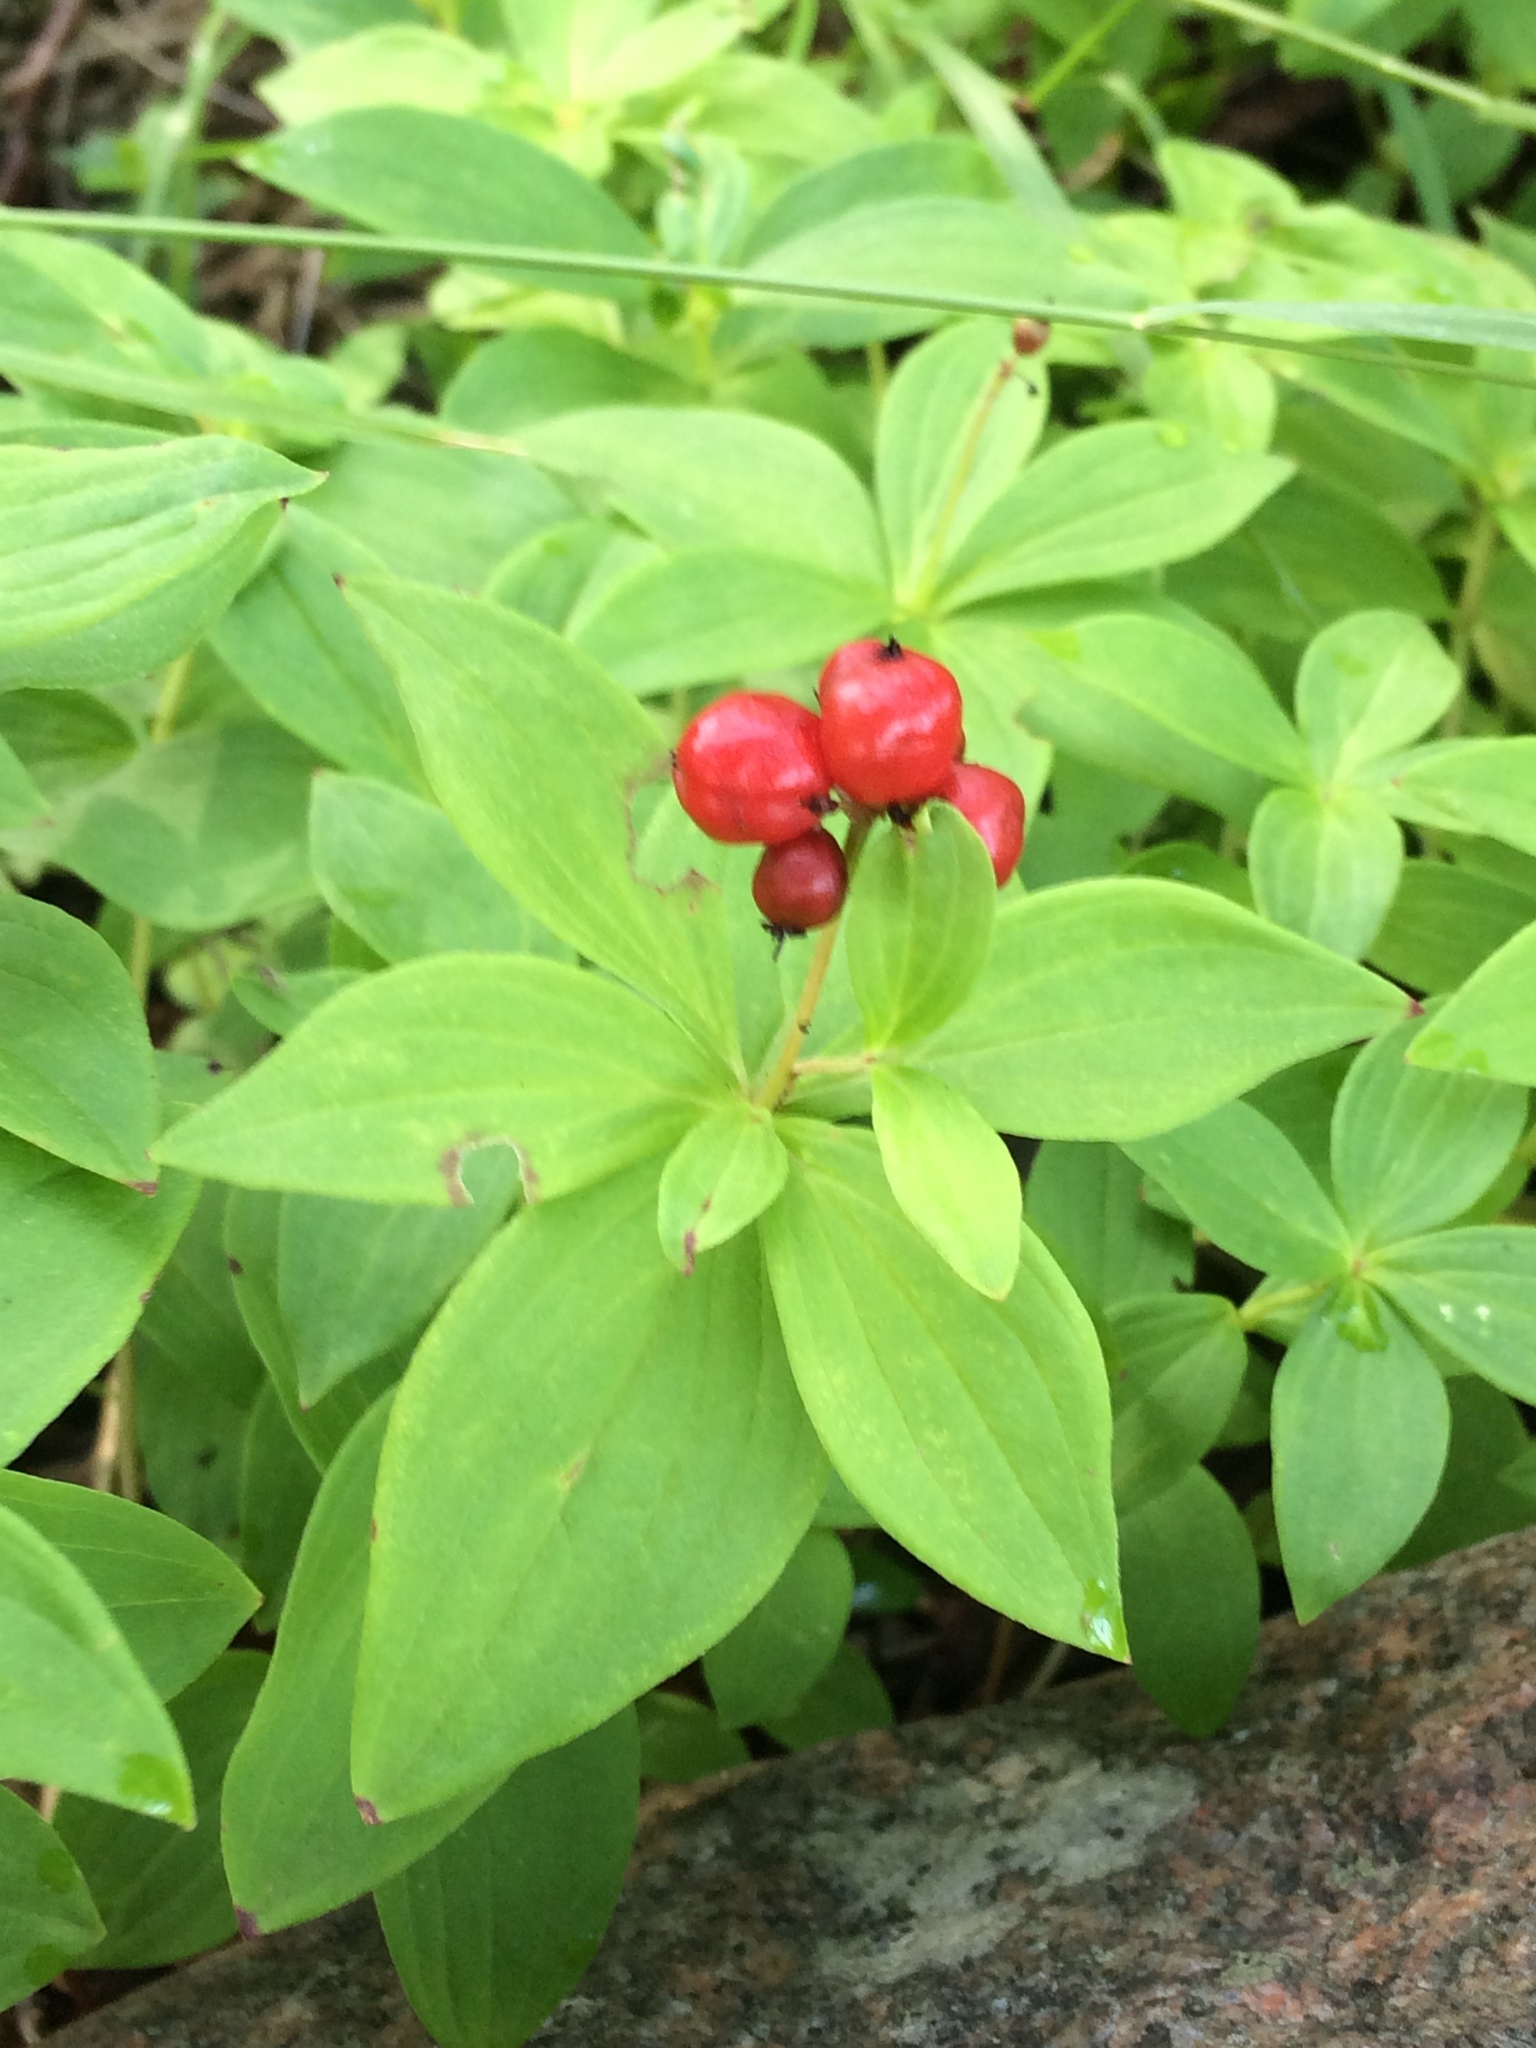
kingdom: Plantae
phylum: Tracheophyta
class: Magnoliopsida
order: Cornales
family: Cornaceae
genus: Cornus
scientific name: Cornus suecica
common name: Dwarf cornel
